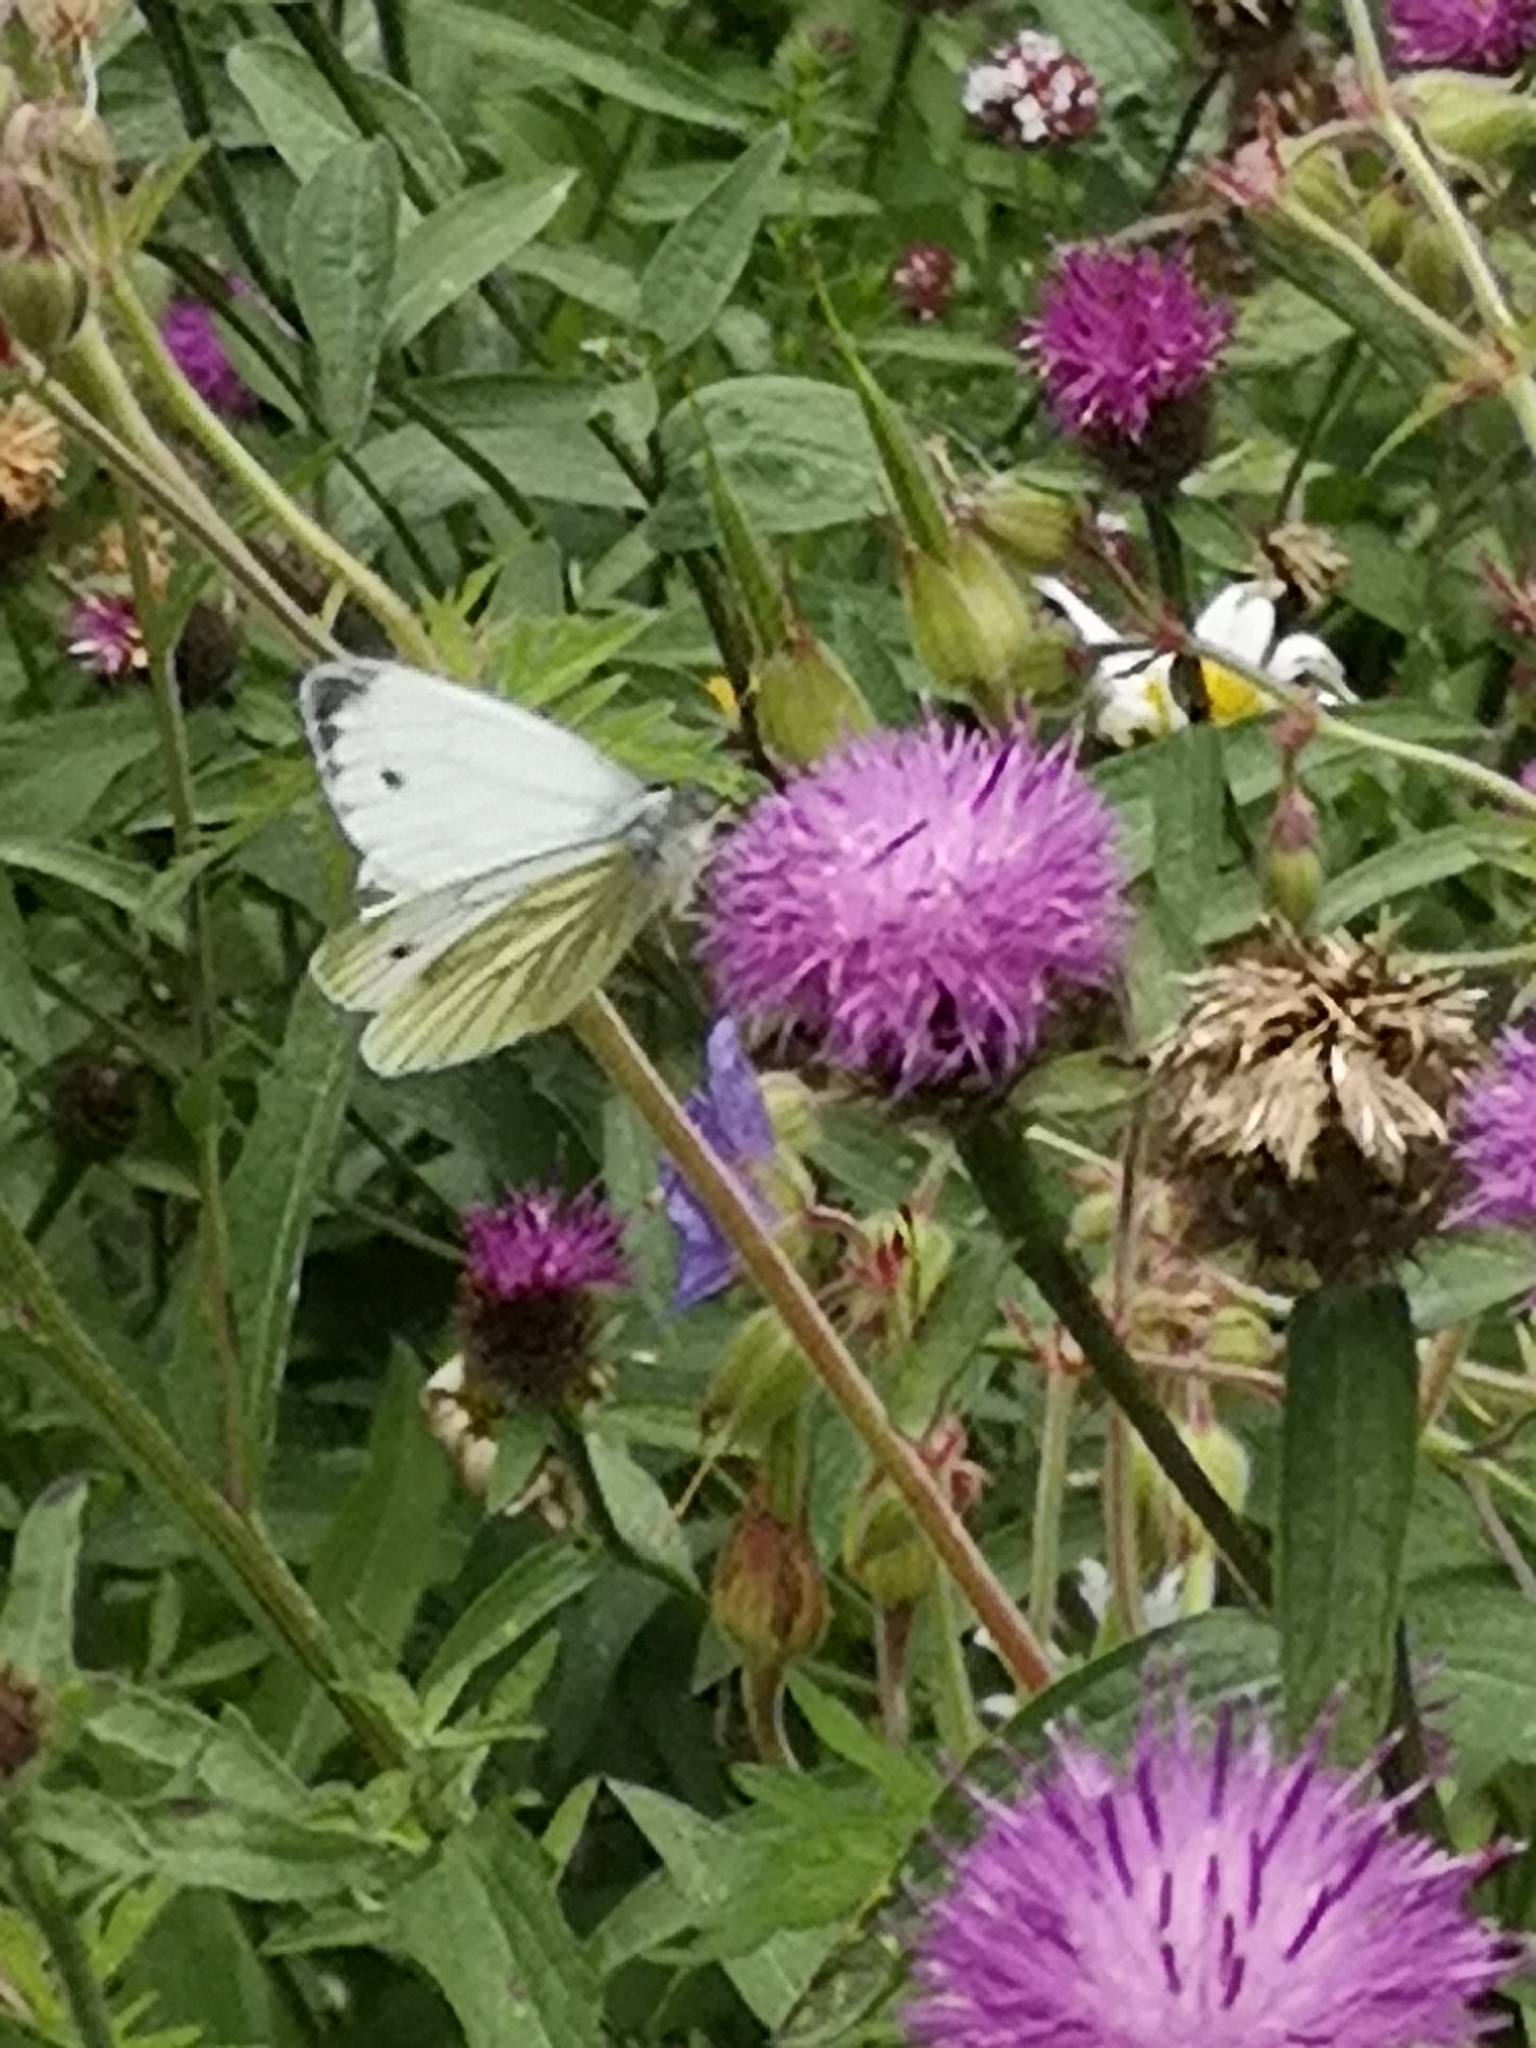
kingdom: Animalia
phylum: Arthropoda
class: Insecta
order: Lepidoptera
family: Pieridae
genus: Pieris
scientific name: Pieris napi
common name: Green-veined white
